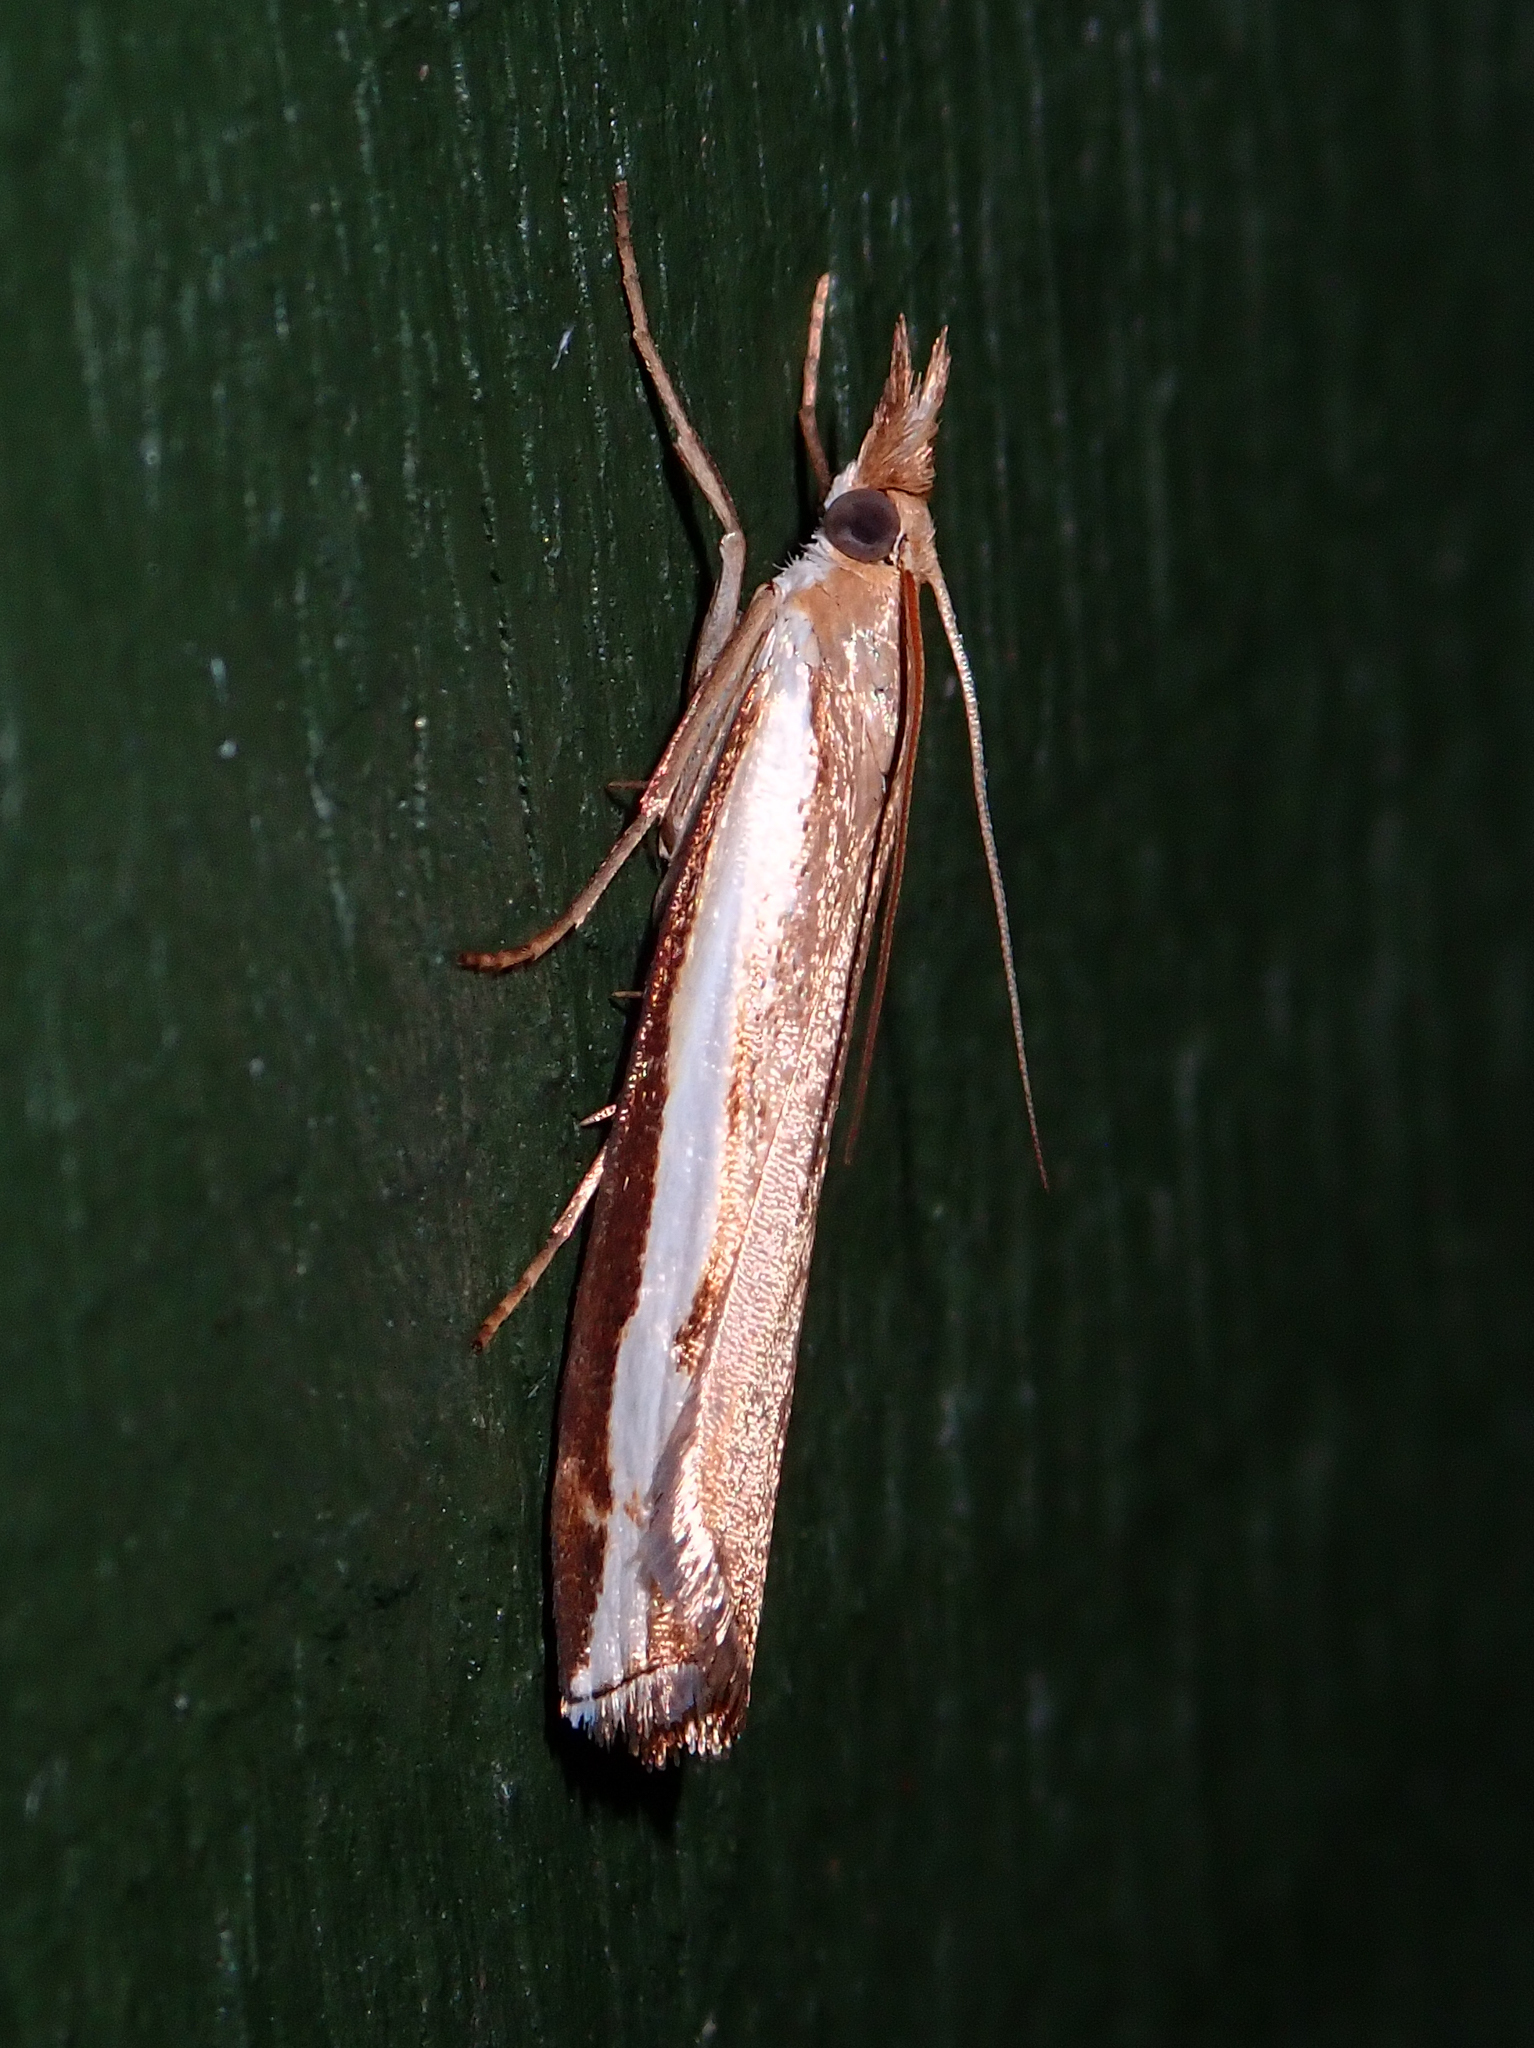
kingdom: Animalia
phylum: Arthropoda
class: Insecta
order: Lepidoptera
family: Crambidae
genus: Orocrambus
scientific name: Orocrambus flexuosellus
